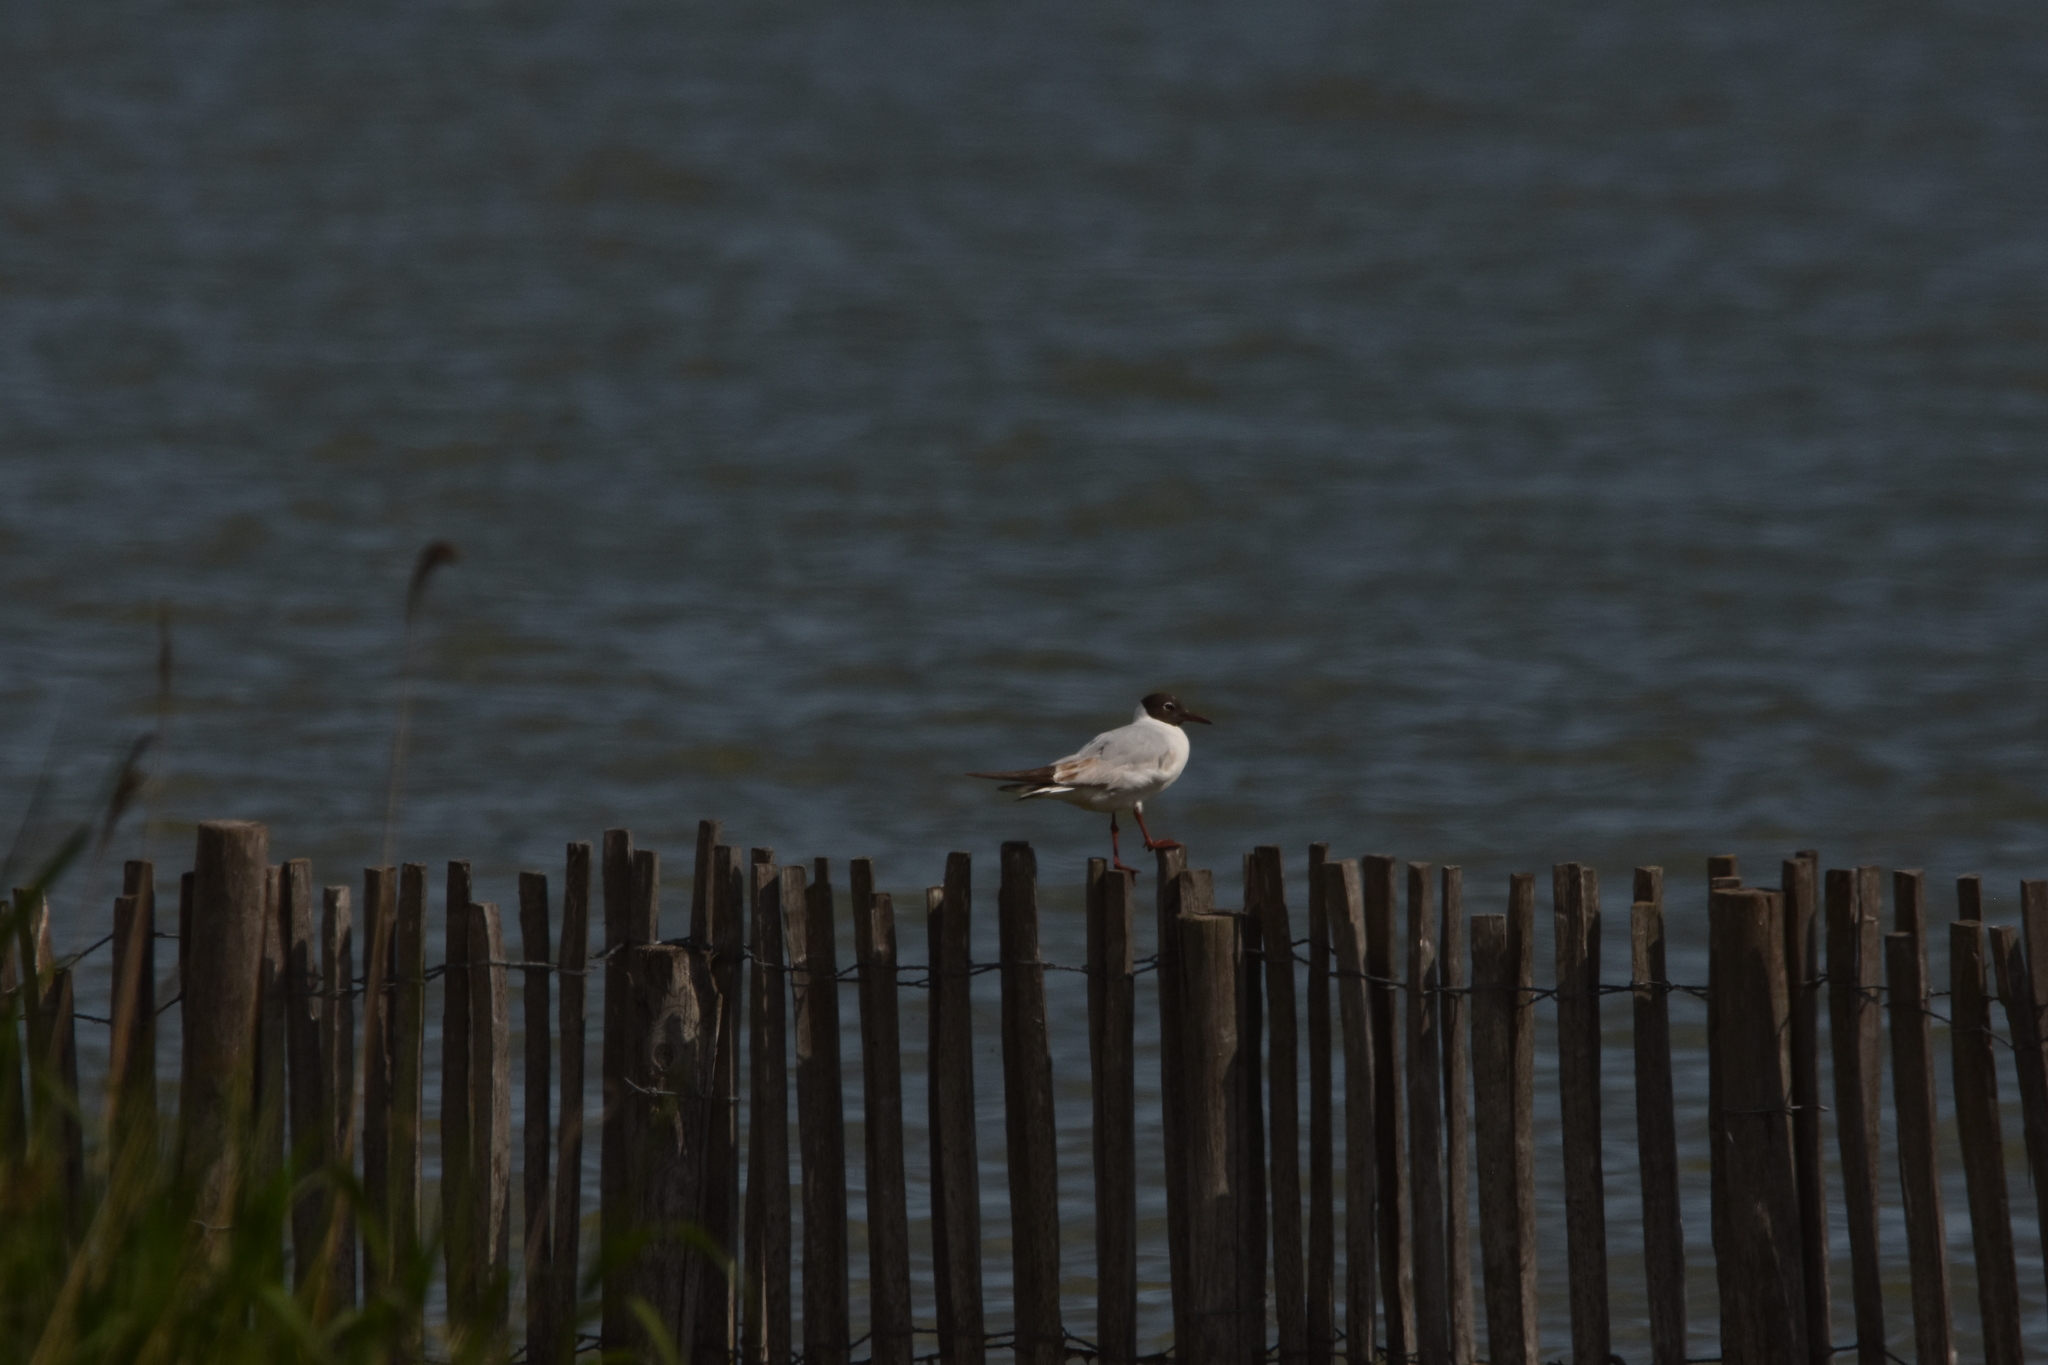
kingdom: Animalia
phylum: Chordata
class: Aves
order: Charadriiformes
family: Laridae
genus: Chroicocephalus
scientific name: Chroicocephalus ridibundus
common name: Black-headed gull
